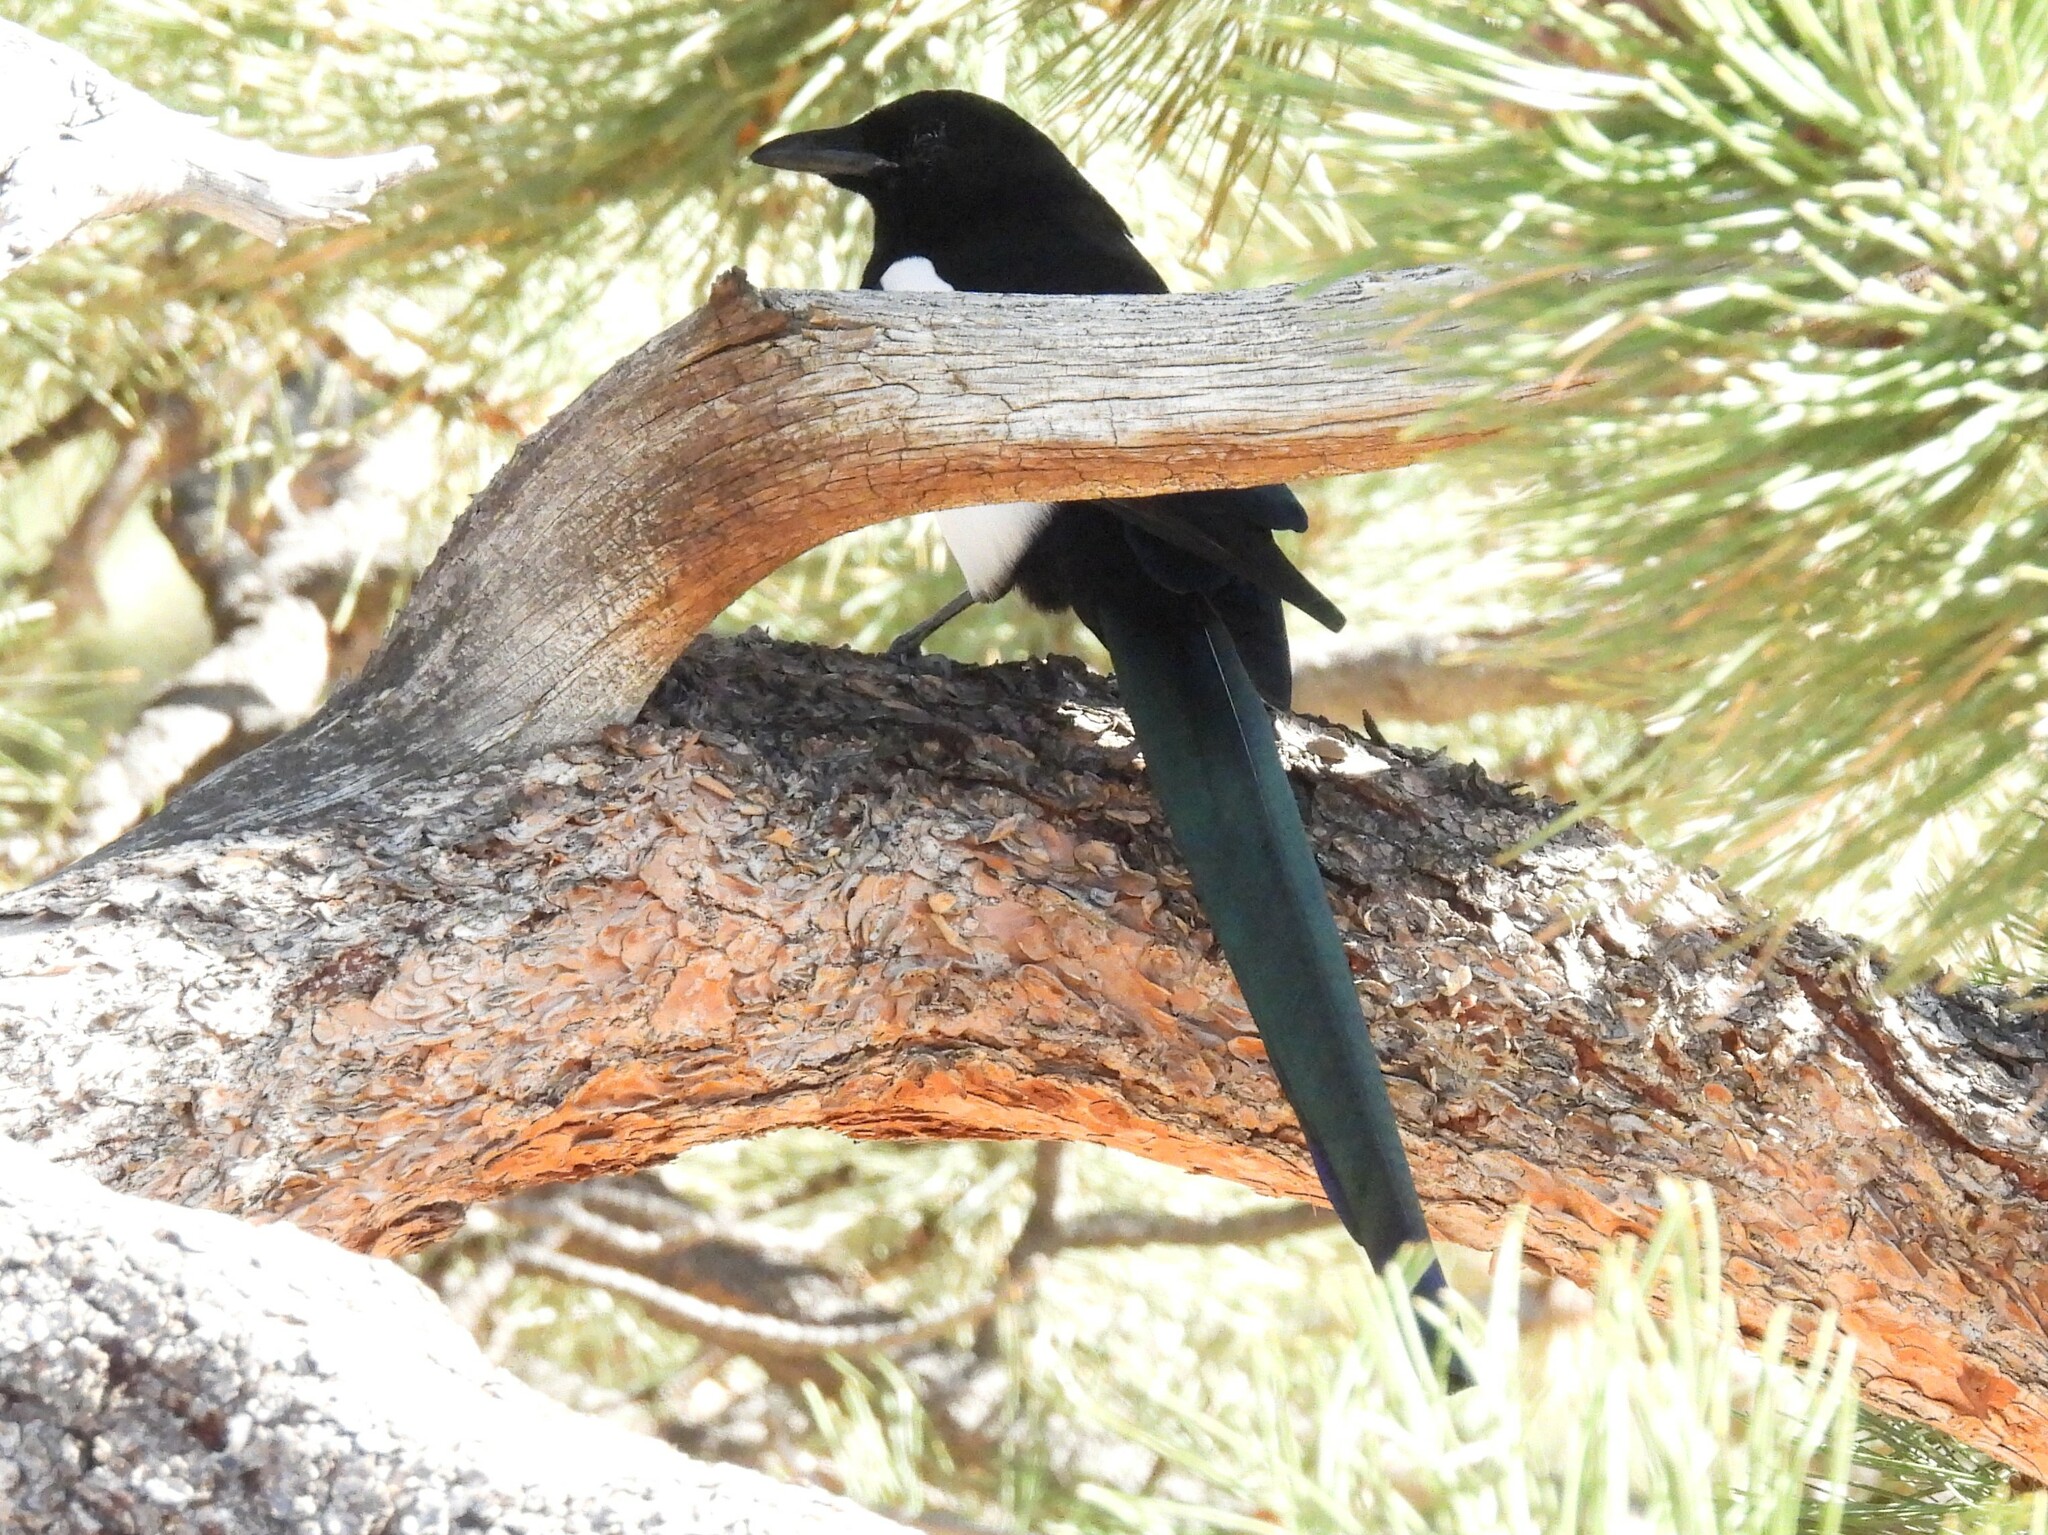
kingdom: Animalia
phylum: Chordata
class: Aves
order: Passeriformes
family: Corvidae
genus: Pica
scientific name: Pica hudsonia
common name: Black-billed magpie
